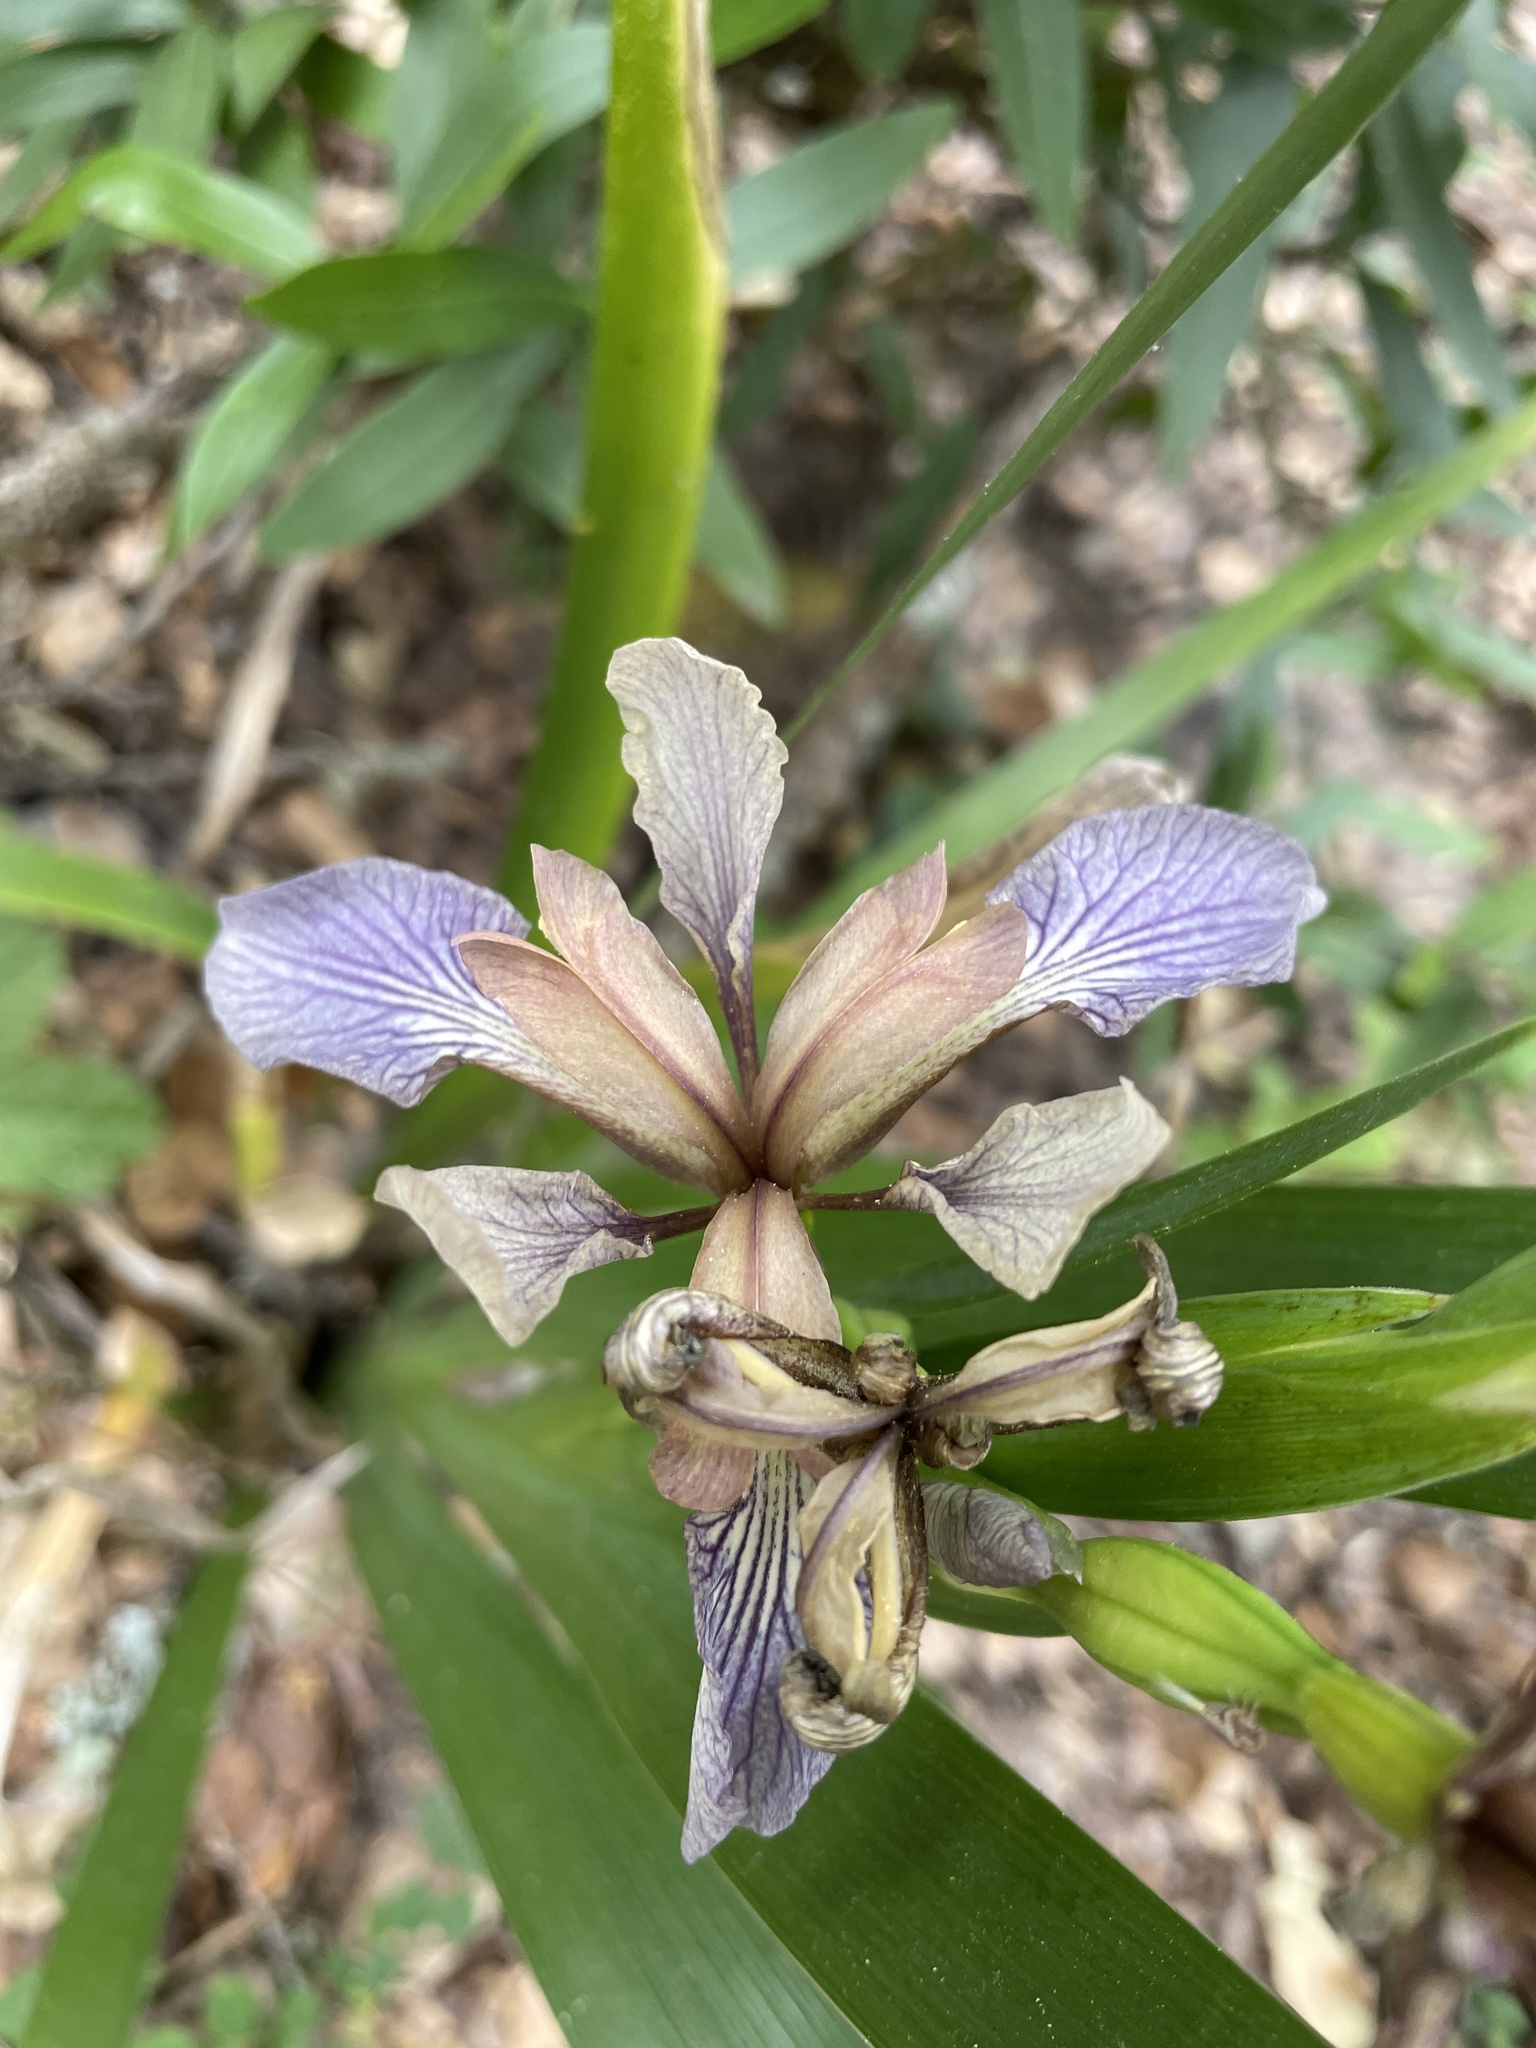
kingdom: Plantae
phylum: Tracheophyta
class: Liliopsida
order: Asparagales
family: Iridaceae
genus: Iris
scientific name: Iris foetidissima
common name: Stinking iris
